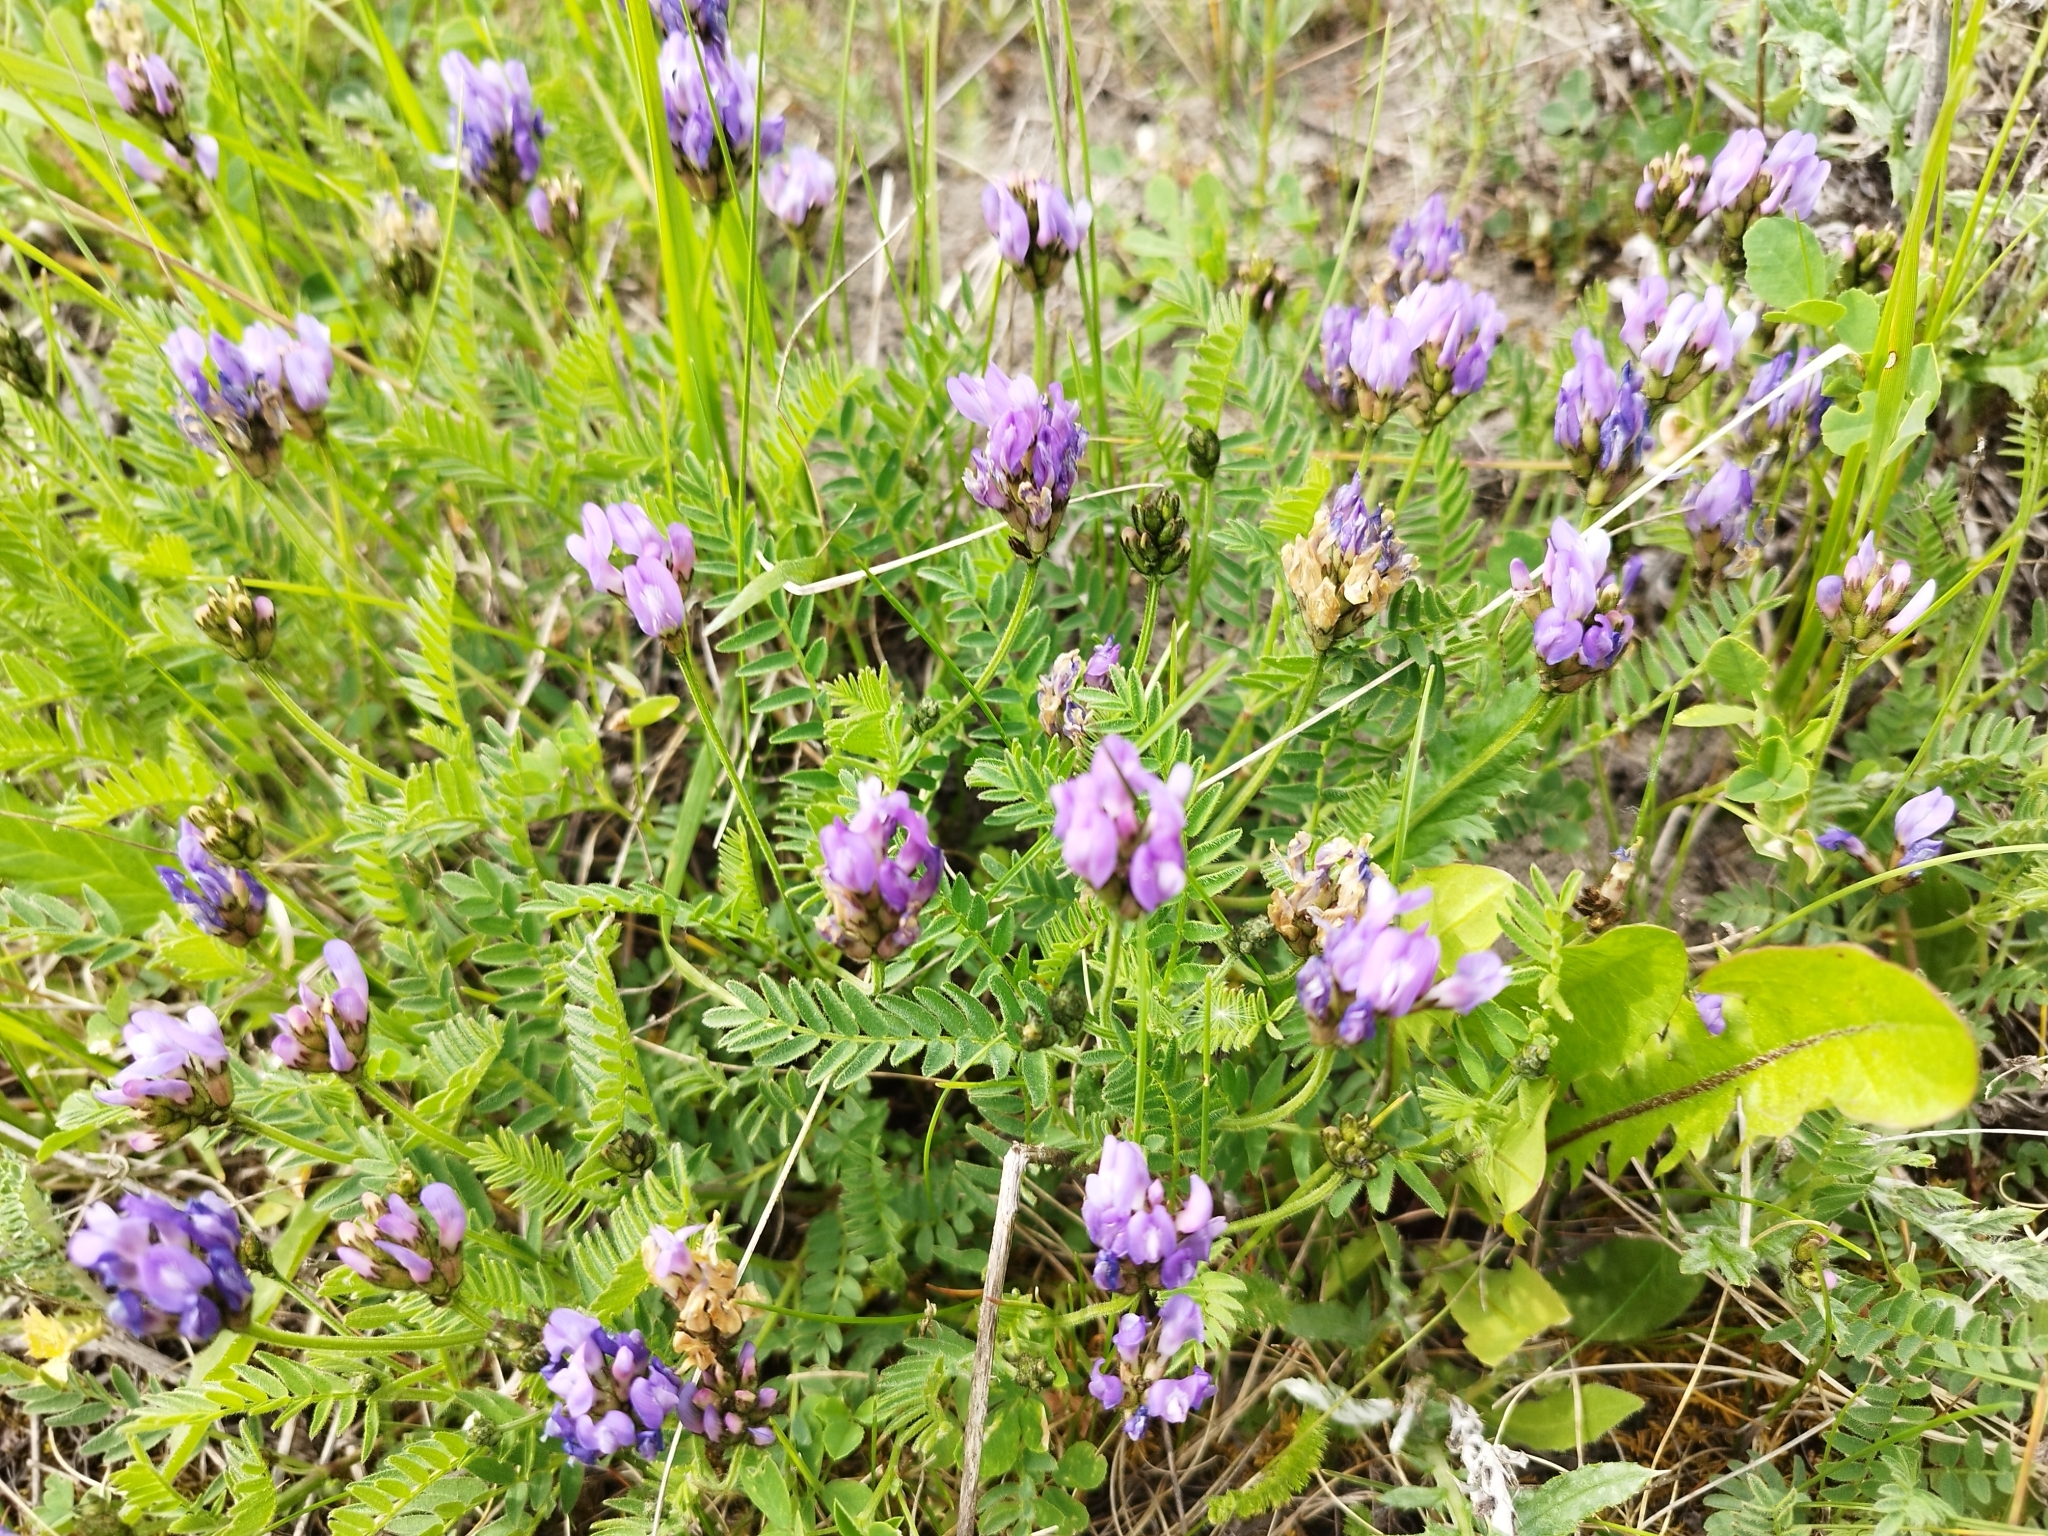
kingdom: Plantae
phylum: Tracheophyta
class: Magnoliopsida
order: Fabales
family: Fabaceae
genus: Astragalus
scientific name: Astragalus danicus
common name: Purple milk-vetch
